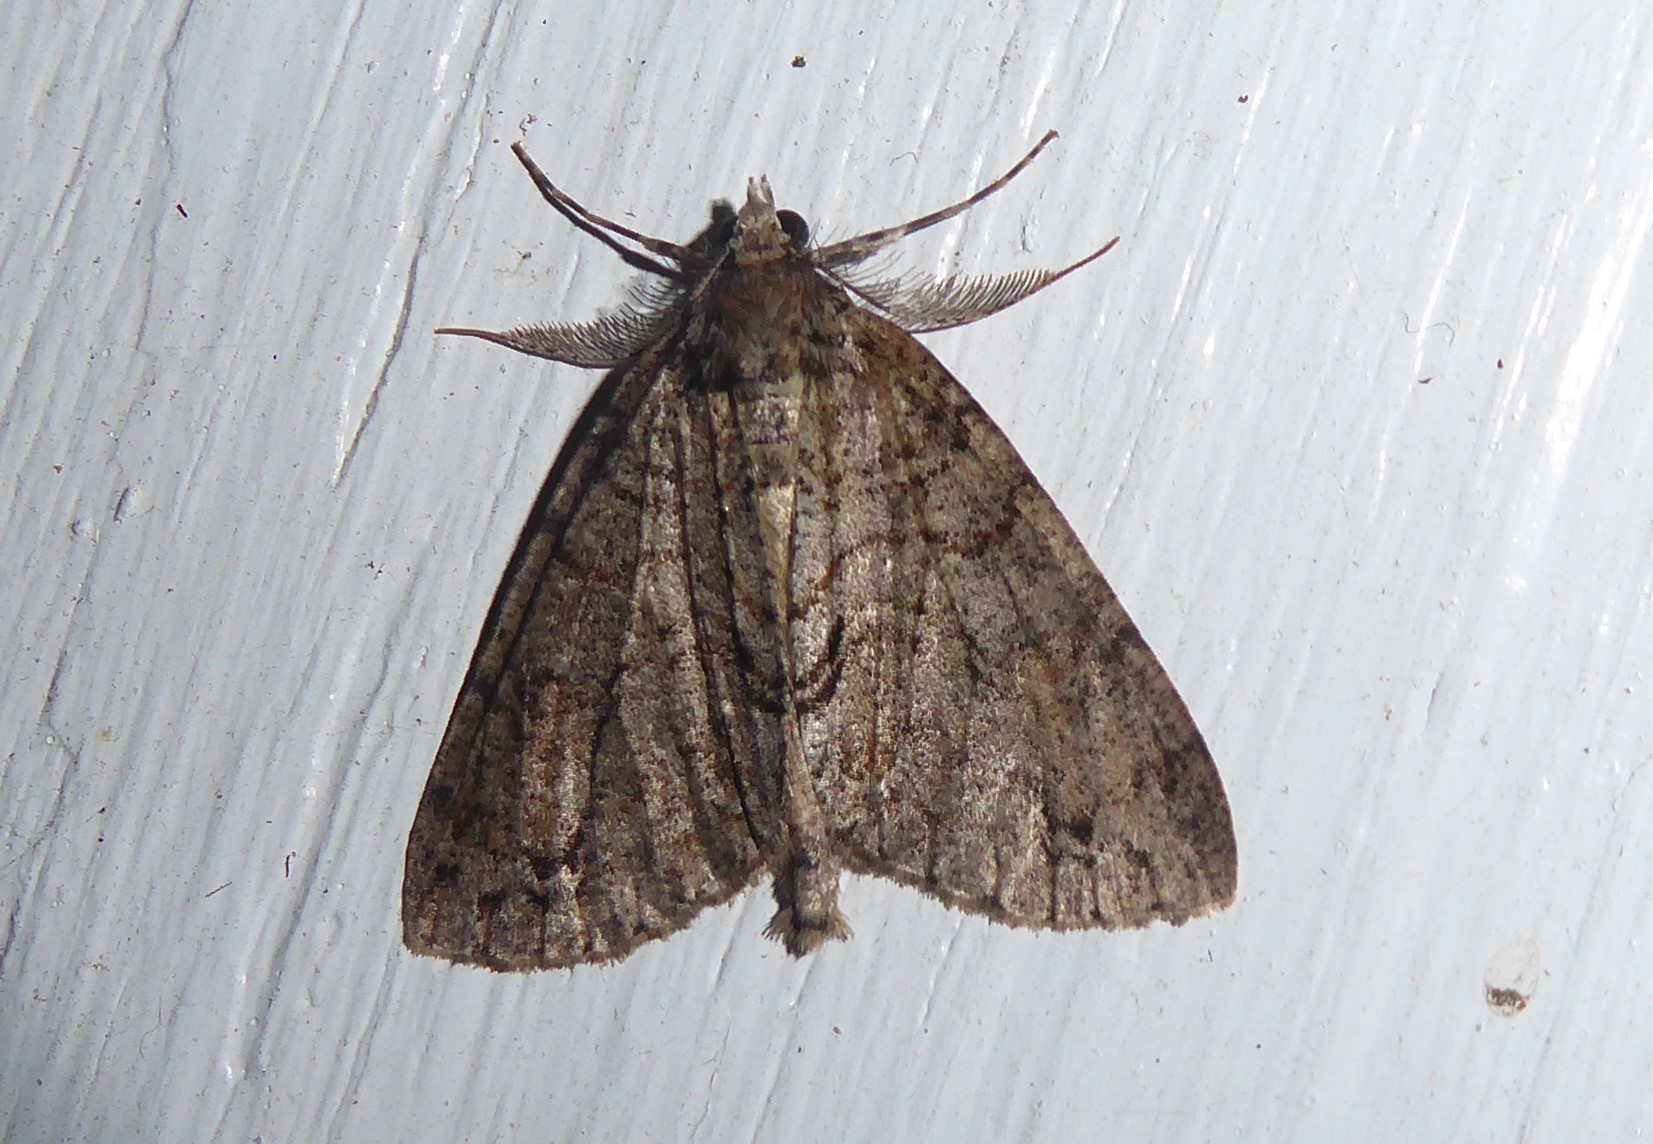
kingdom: Animalia
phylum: Arthropoda
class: Insecta
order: Lepidoptera
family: Geometridae
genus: Pseudocoremia
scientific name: Pseudocoremia suavis
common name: Common forest looper
